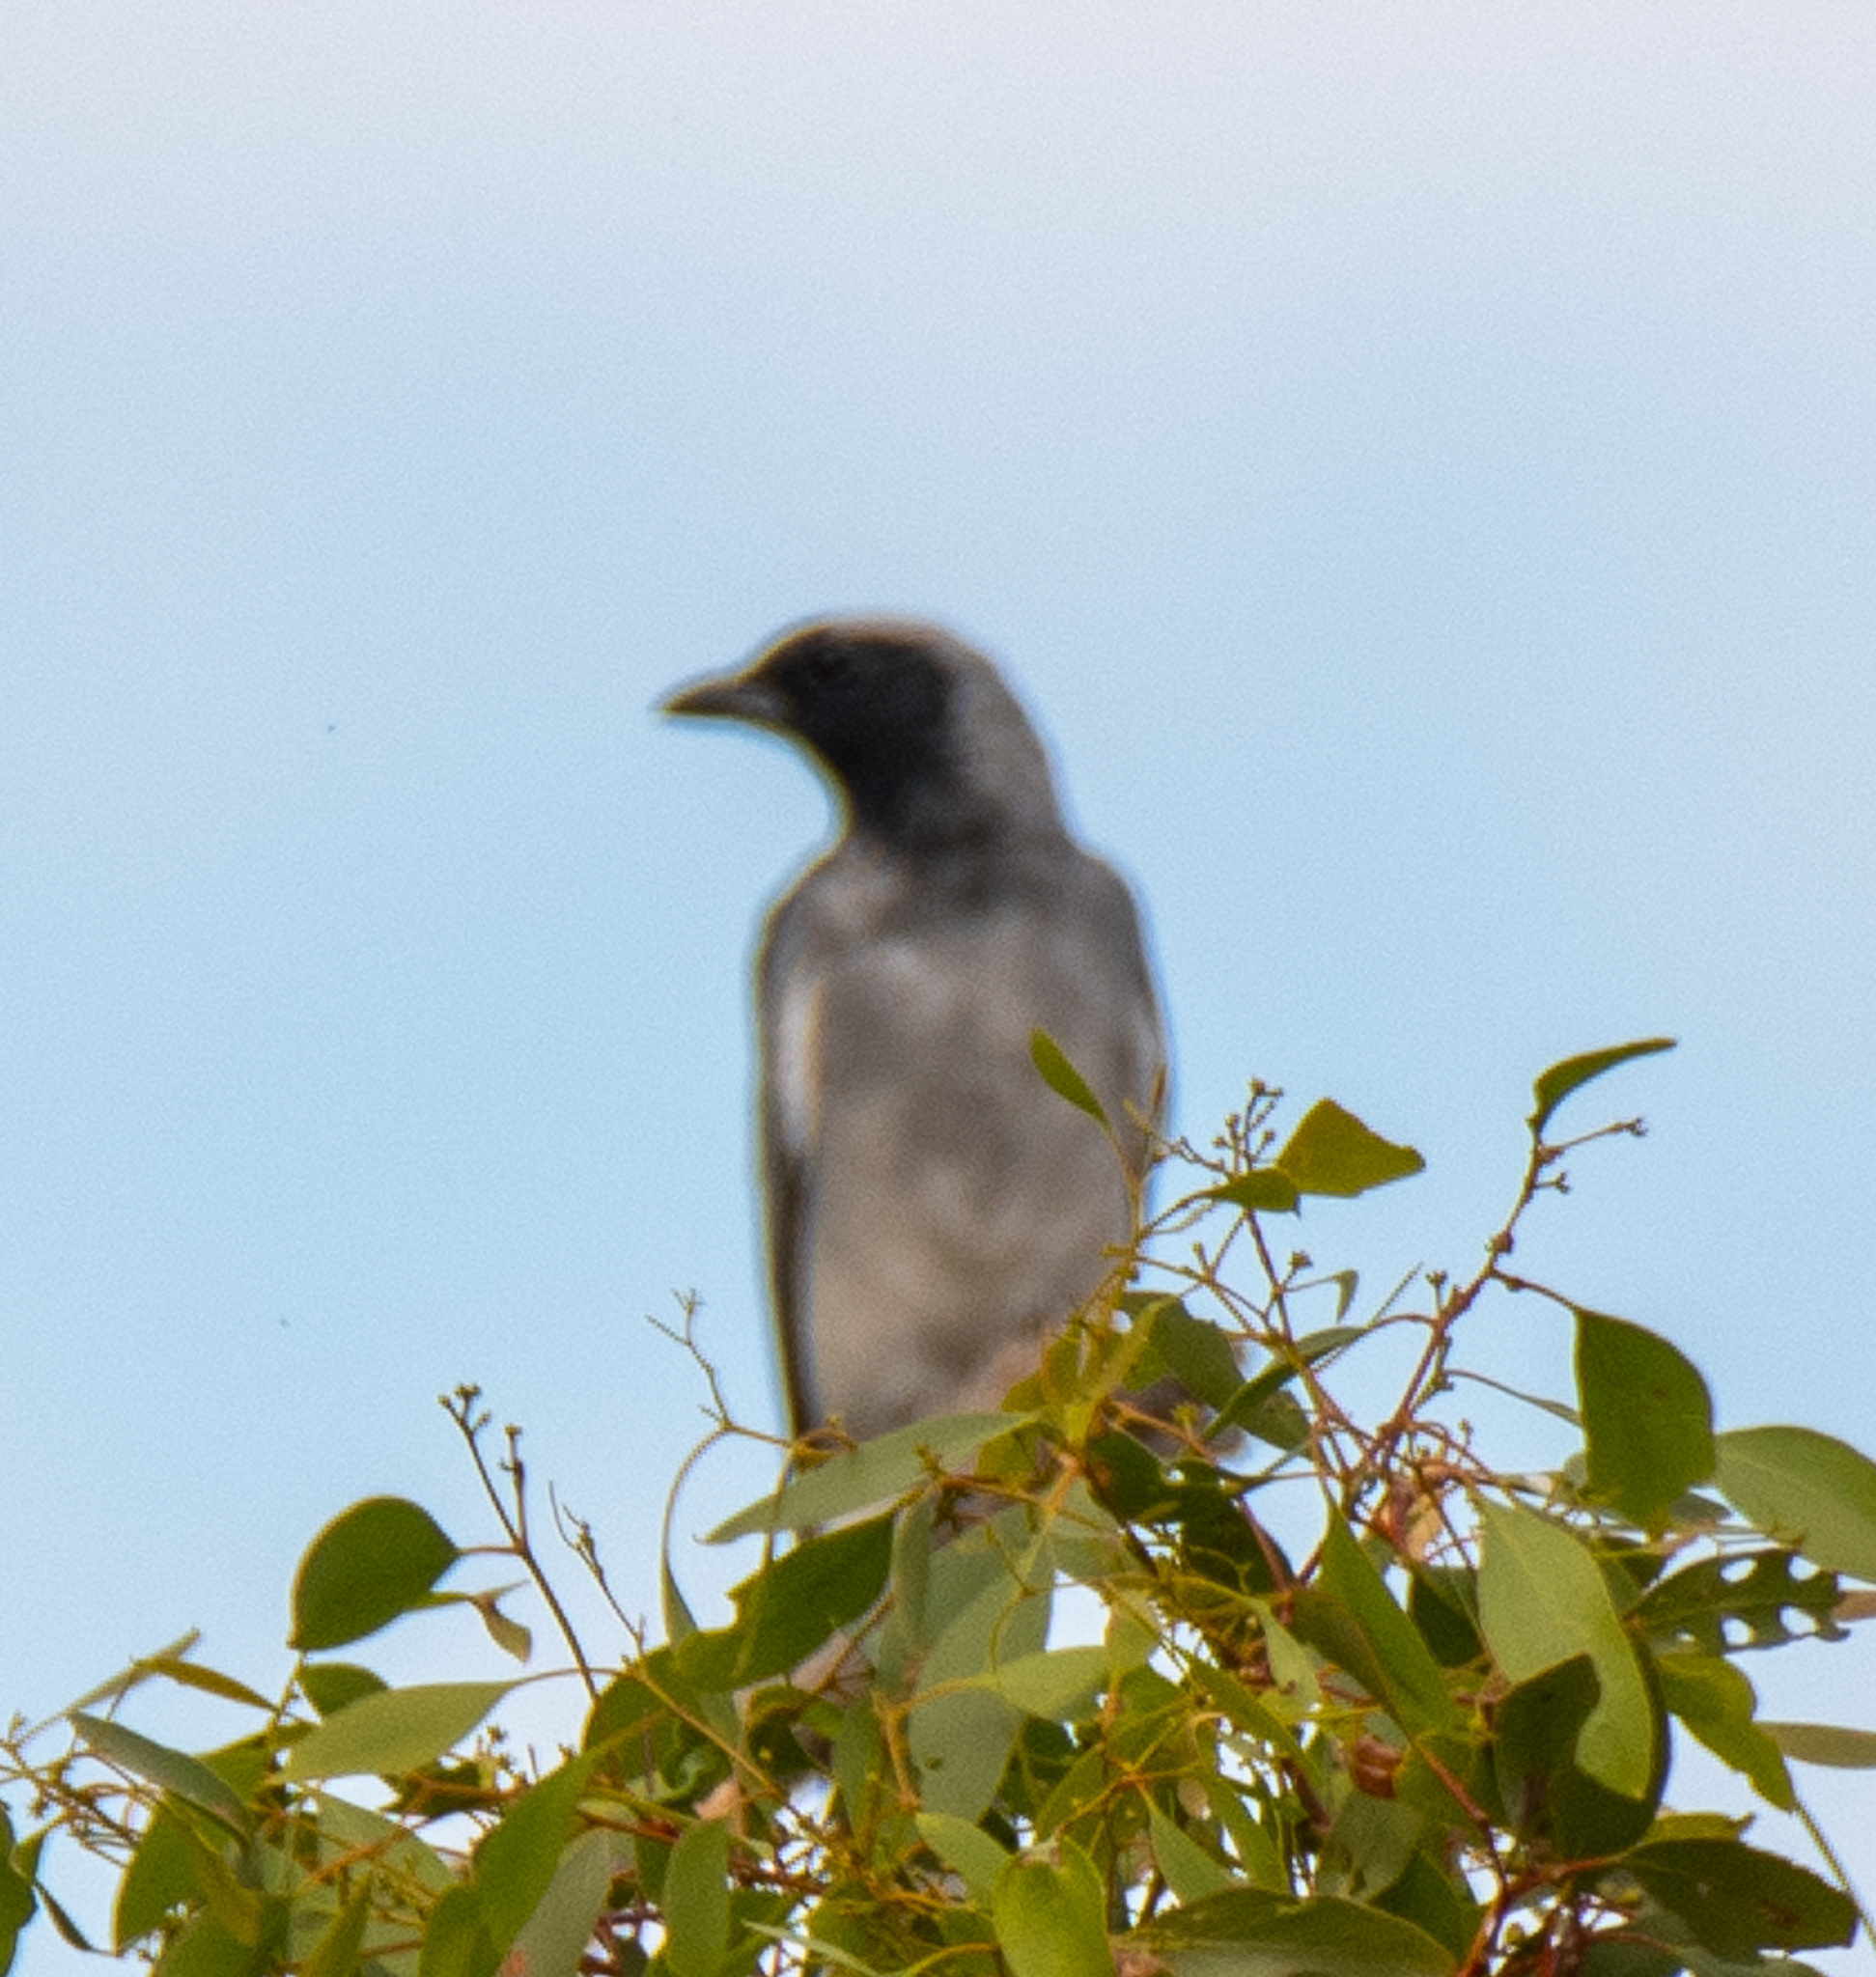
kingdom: Animalia
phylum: Chordata
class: Aves
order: Passeriformes
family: Campephagidae
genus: Coracina
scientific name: Coracina novaehollandiae
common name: Black-faced cuckooshrike
